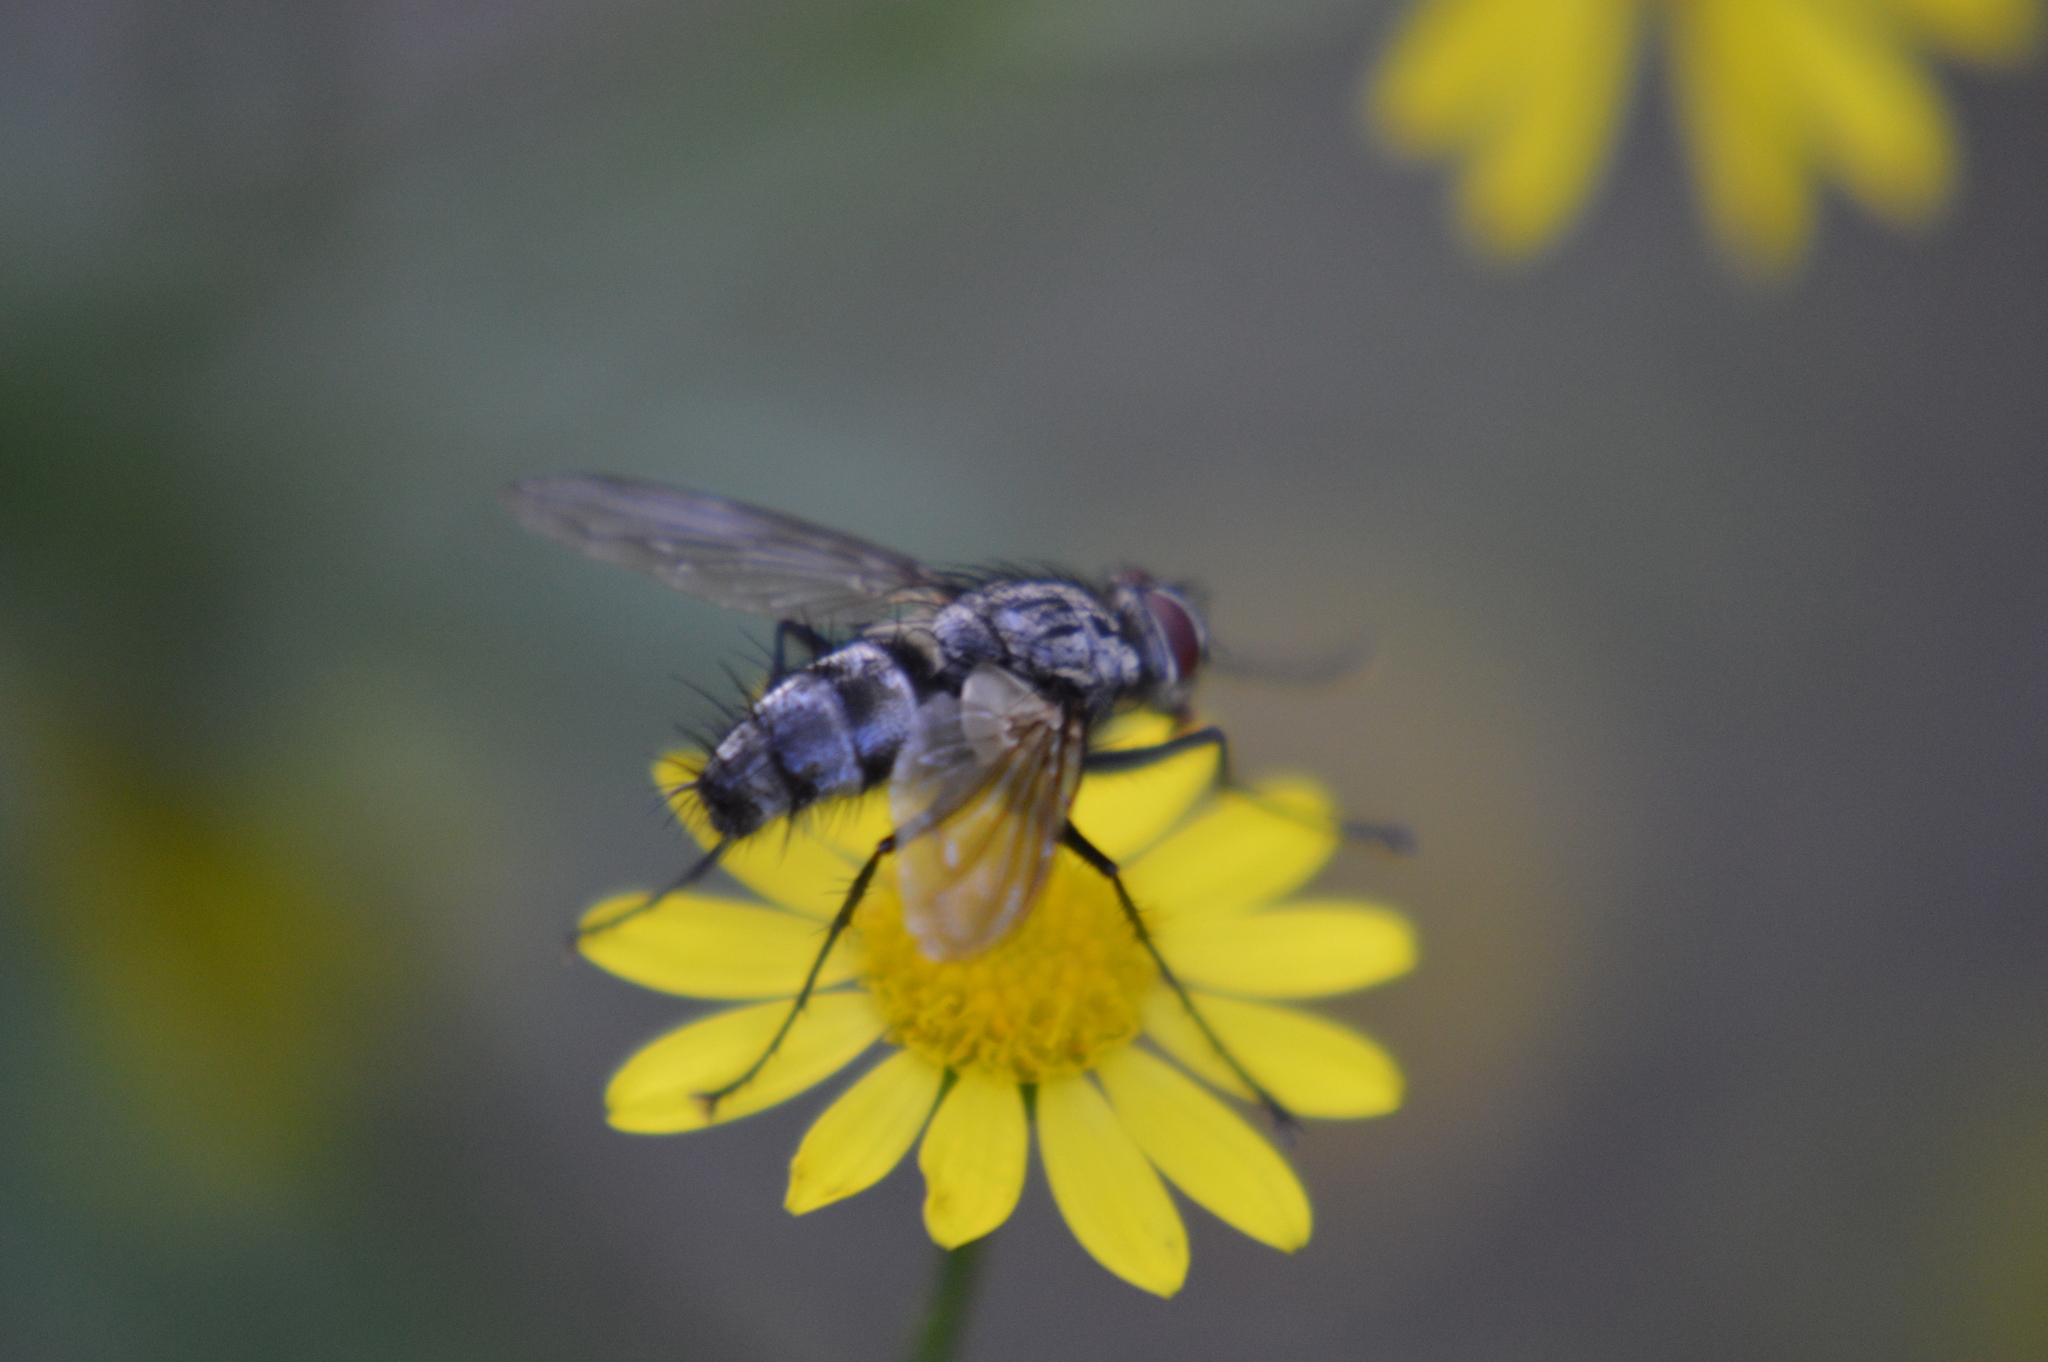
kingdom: Animalia
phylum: Arthropoda
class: Insecta
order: Diptera
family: Tachinidae
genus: Dinera
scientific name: Dinera ferina
